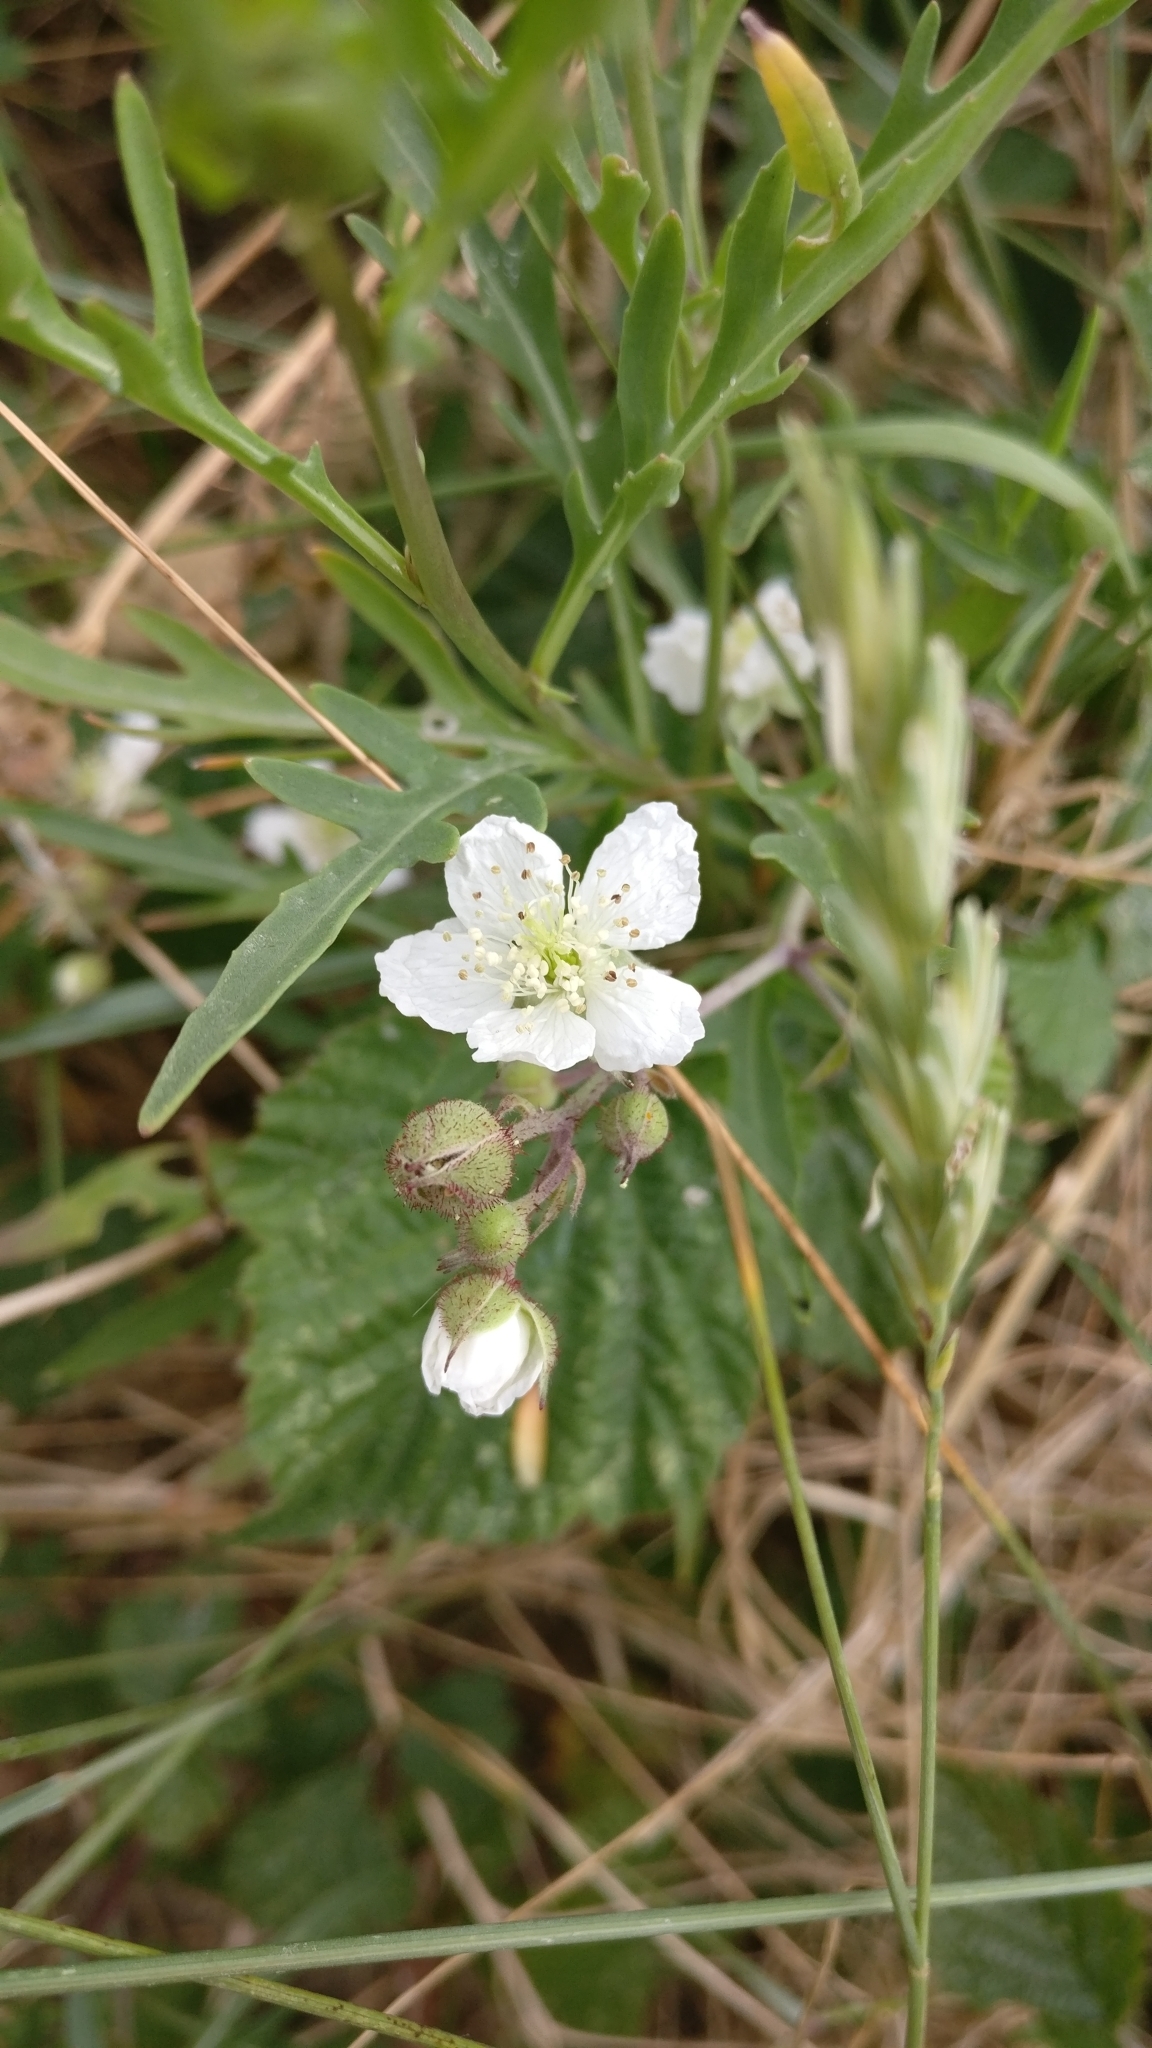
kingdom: Plantae
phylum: Tracheophyta
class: Magnoliopsida
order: Rosales
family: Rosaceae
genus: Rubus
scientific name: Rubus caesius
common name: Dewberry
